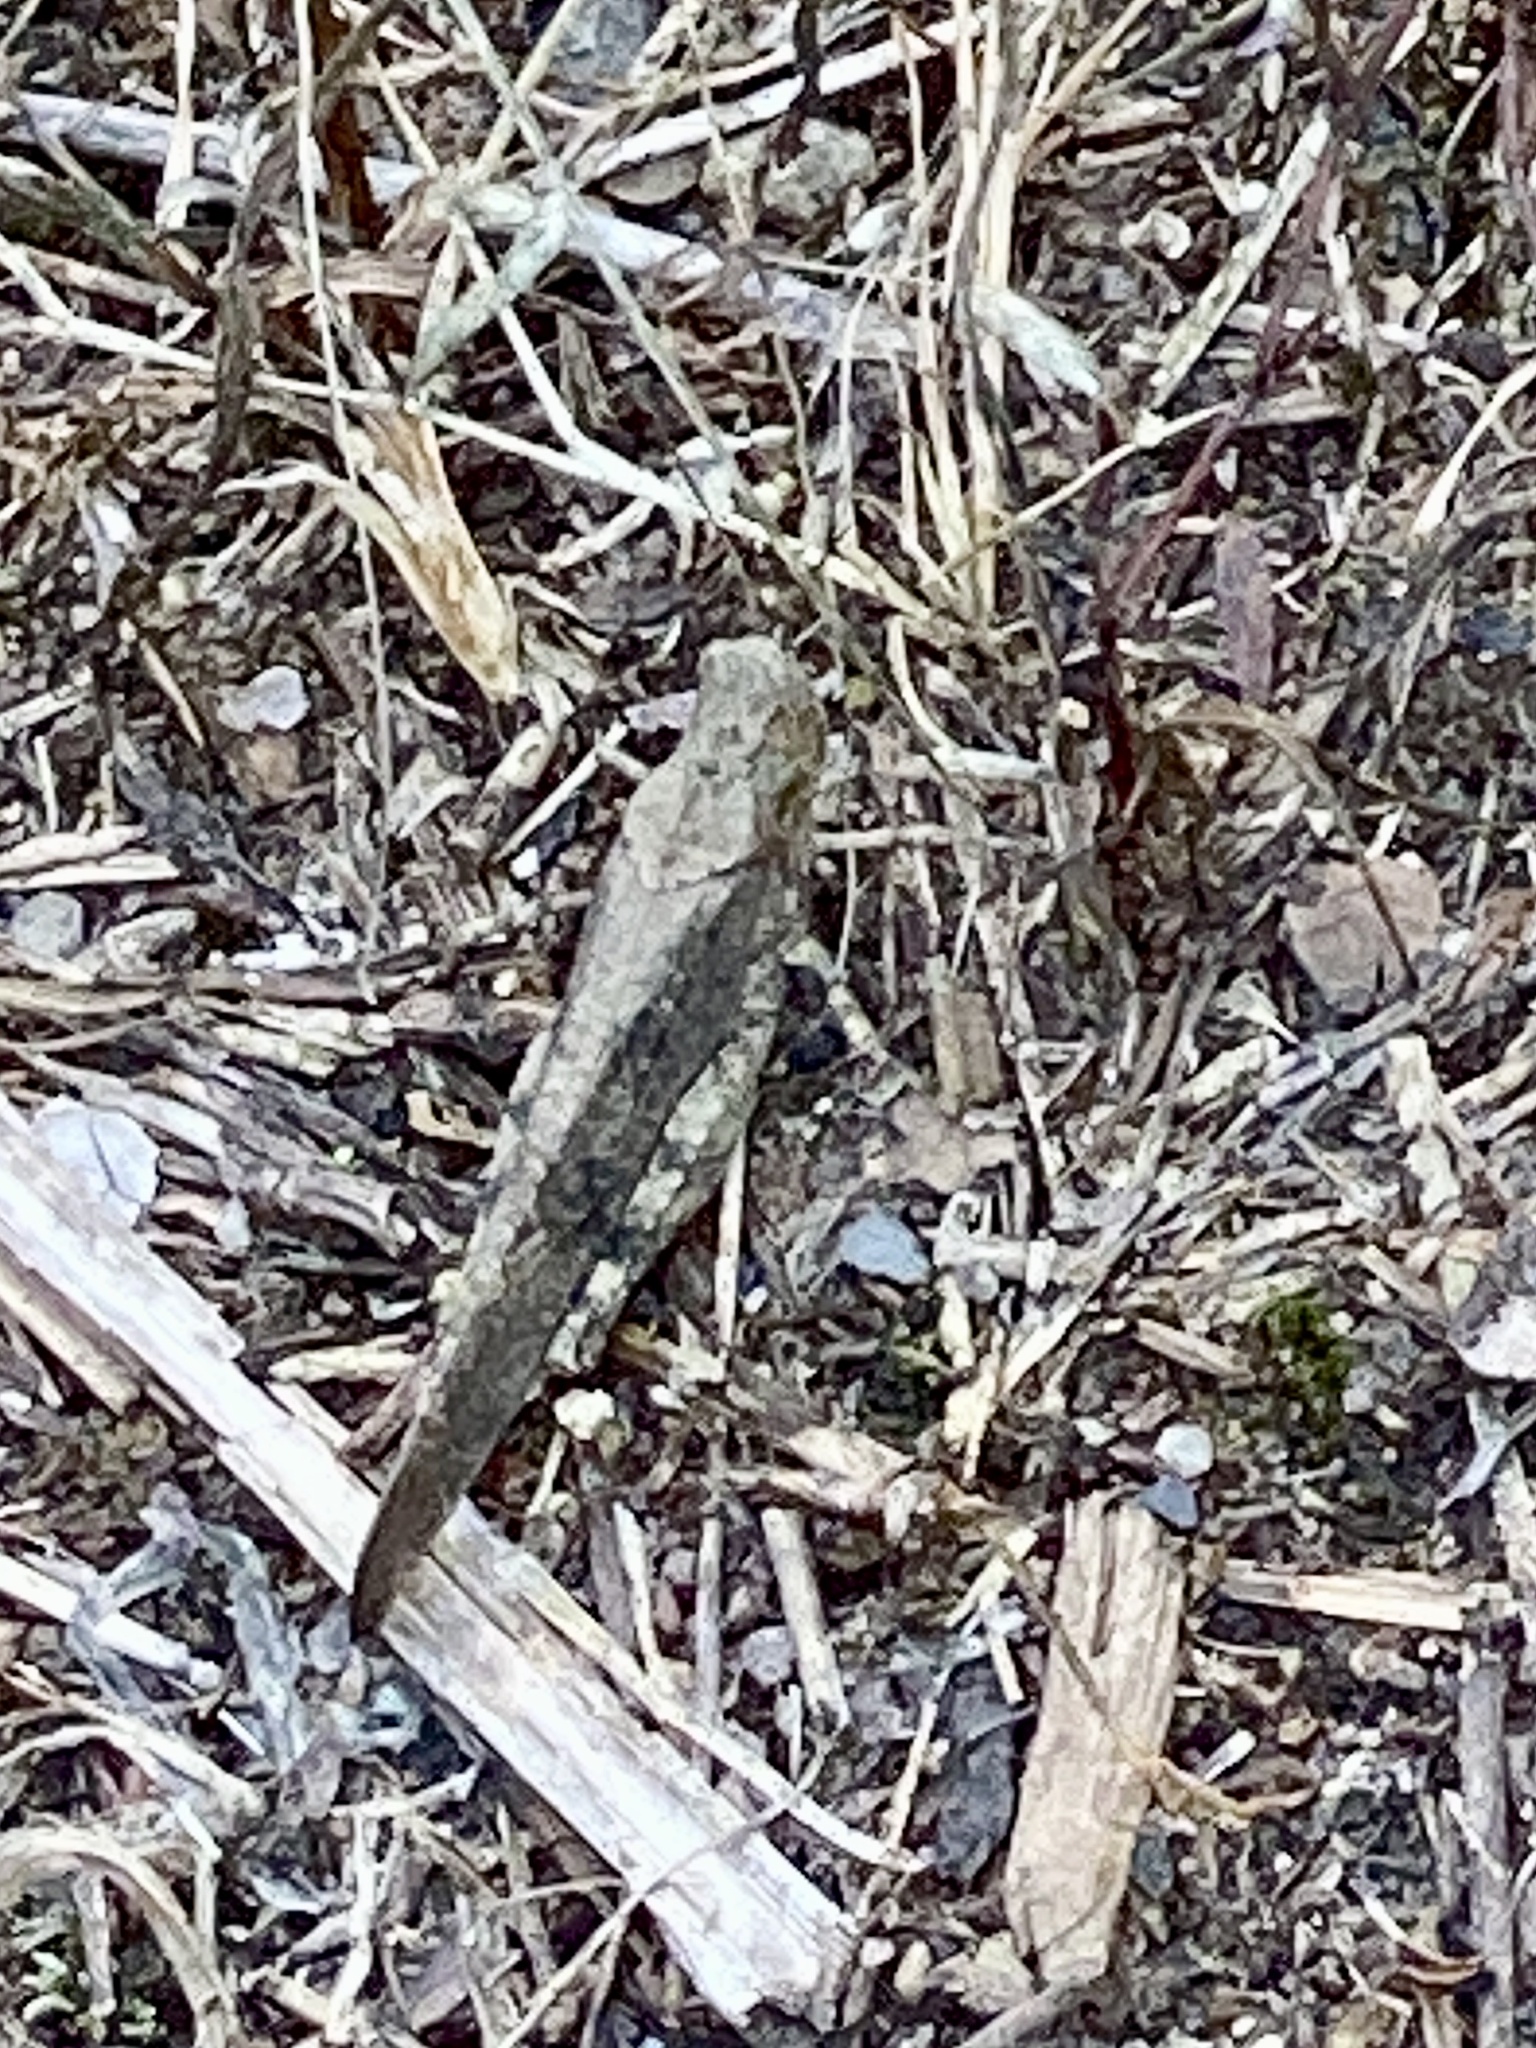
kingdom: Animalia
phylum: Arthropoda
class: Insecta
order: Orthoptera
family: Acrididae
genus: Dissosteira
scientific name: Dissosteira carolina
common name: Carolina grasshopper
